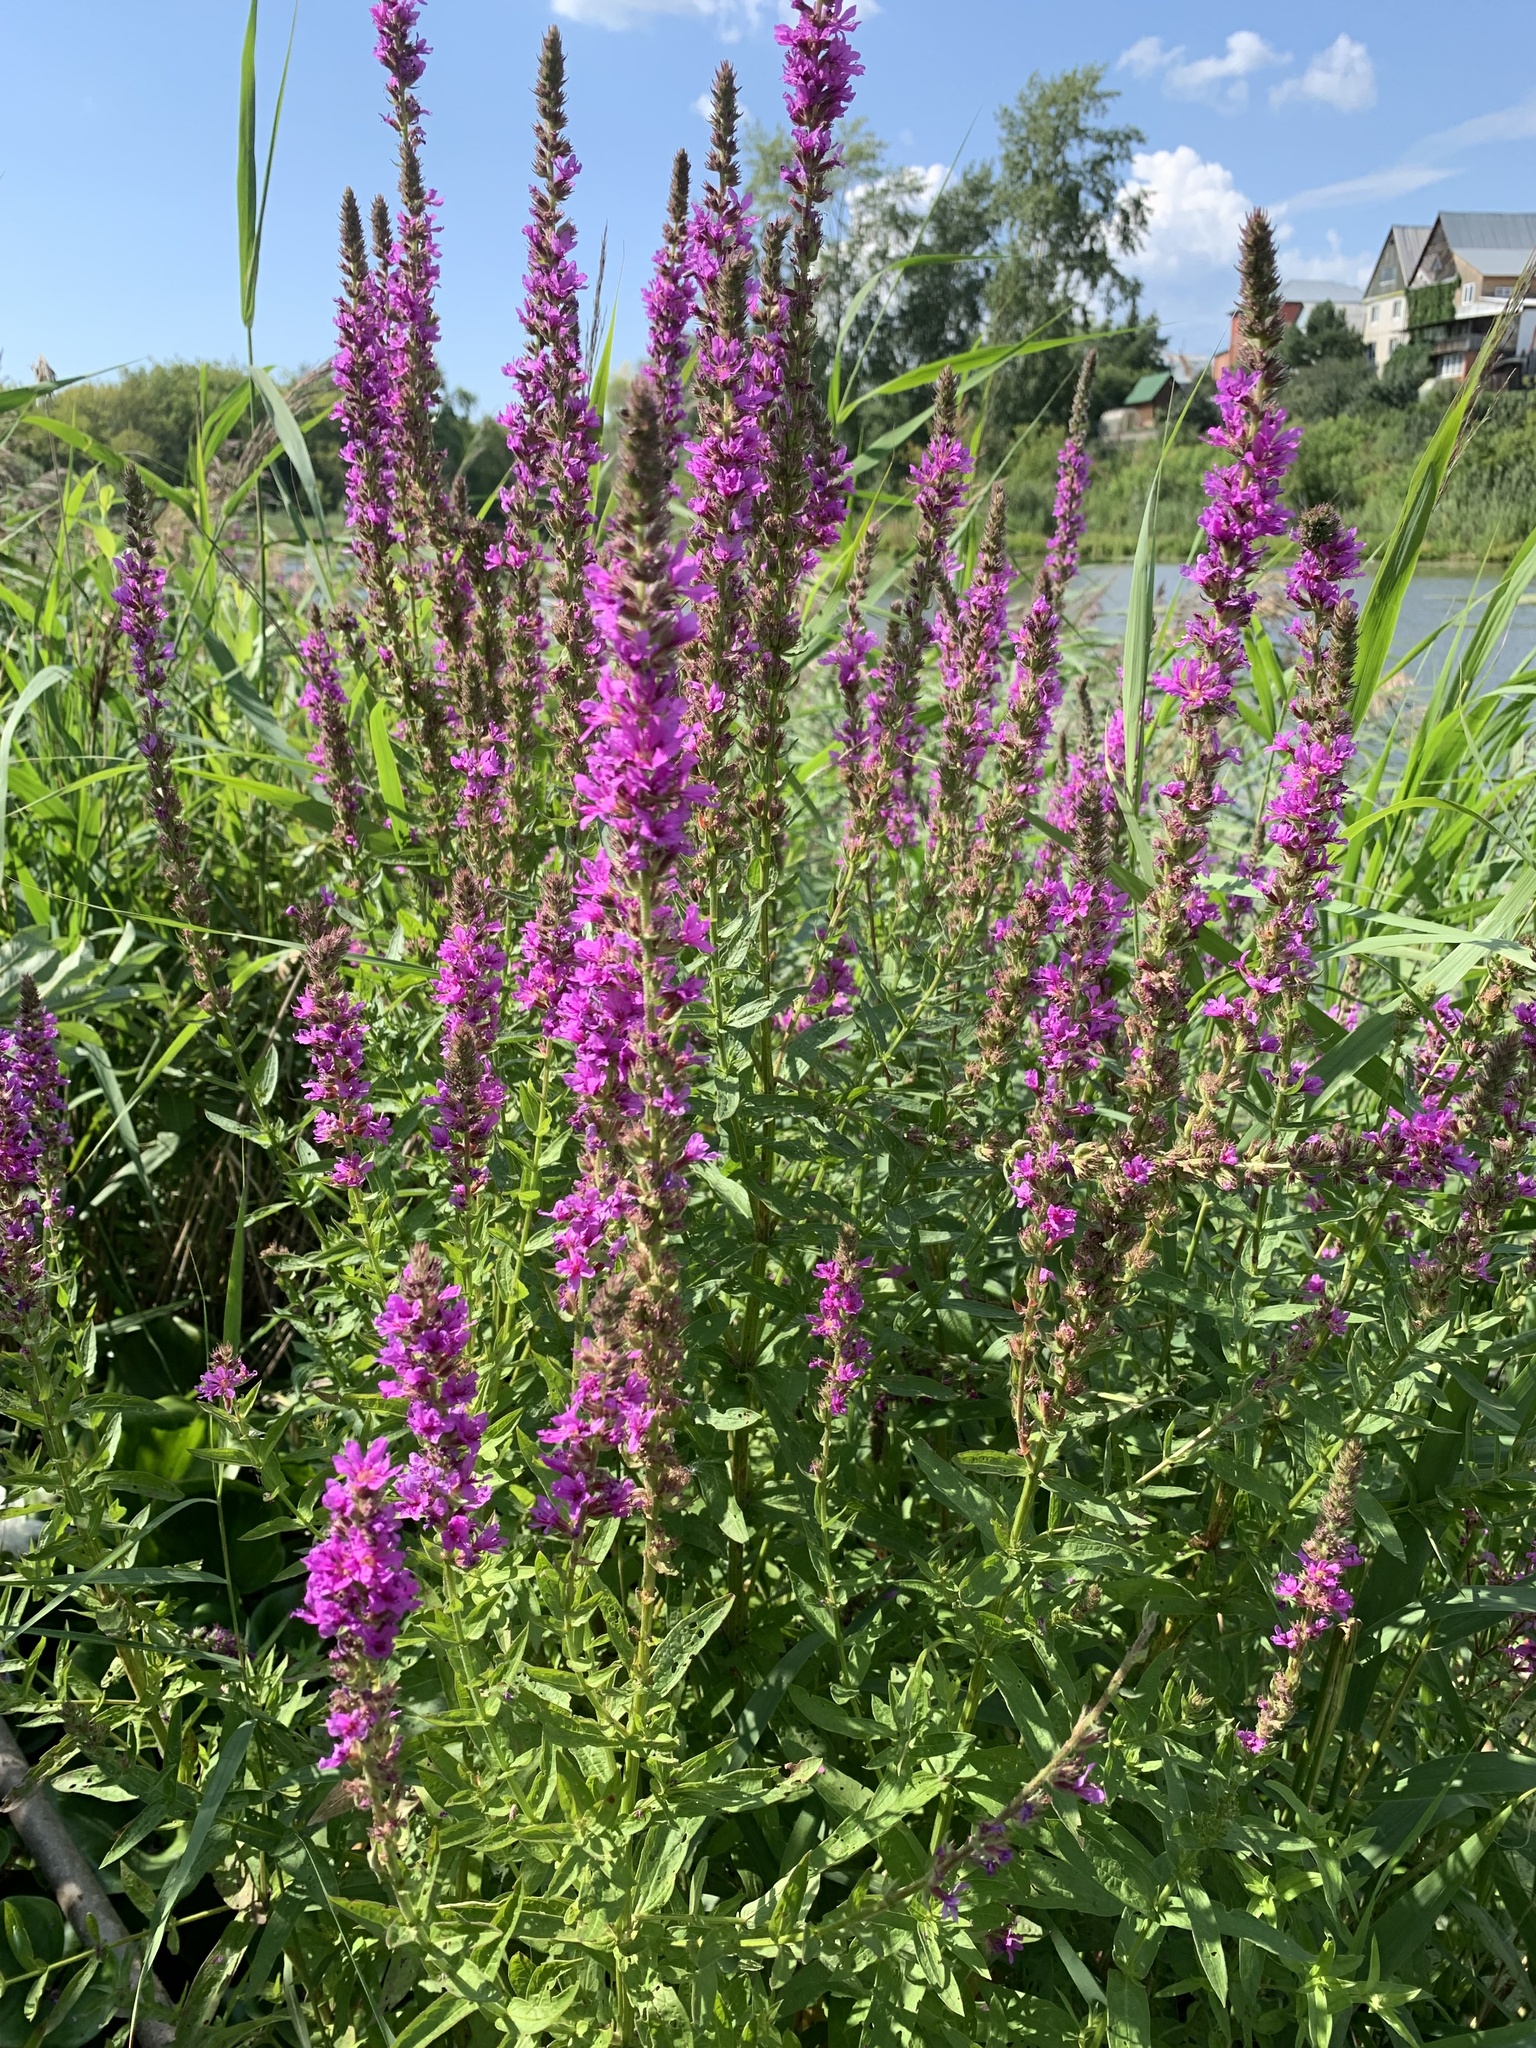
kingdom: Plantae
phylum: Tracheophyta
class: Magnoliopsida
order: Myrtales
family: Lythraceae
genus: Lythrum
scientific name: Lythrum salicaria
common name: Purple loosestrife
